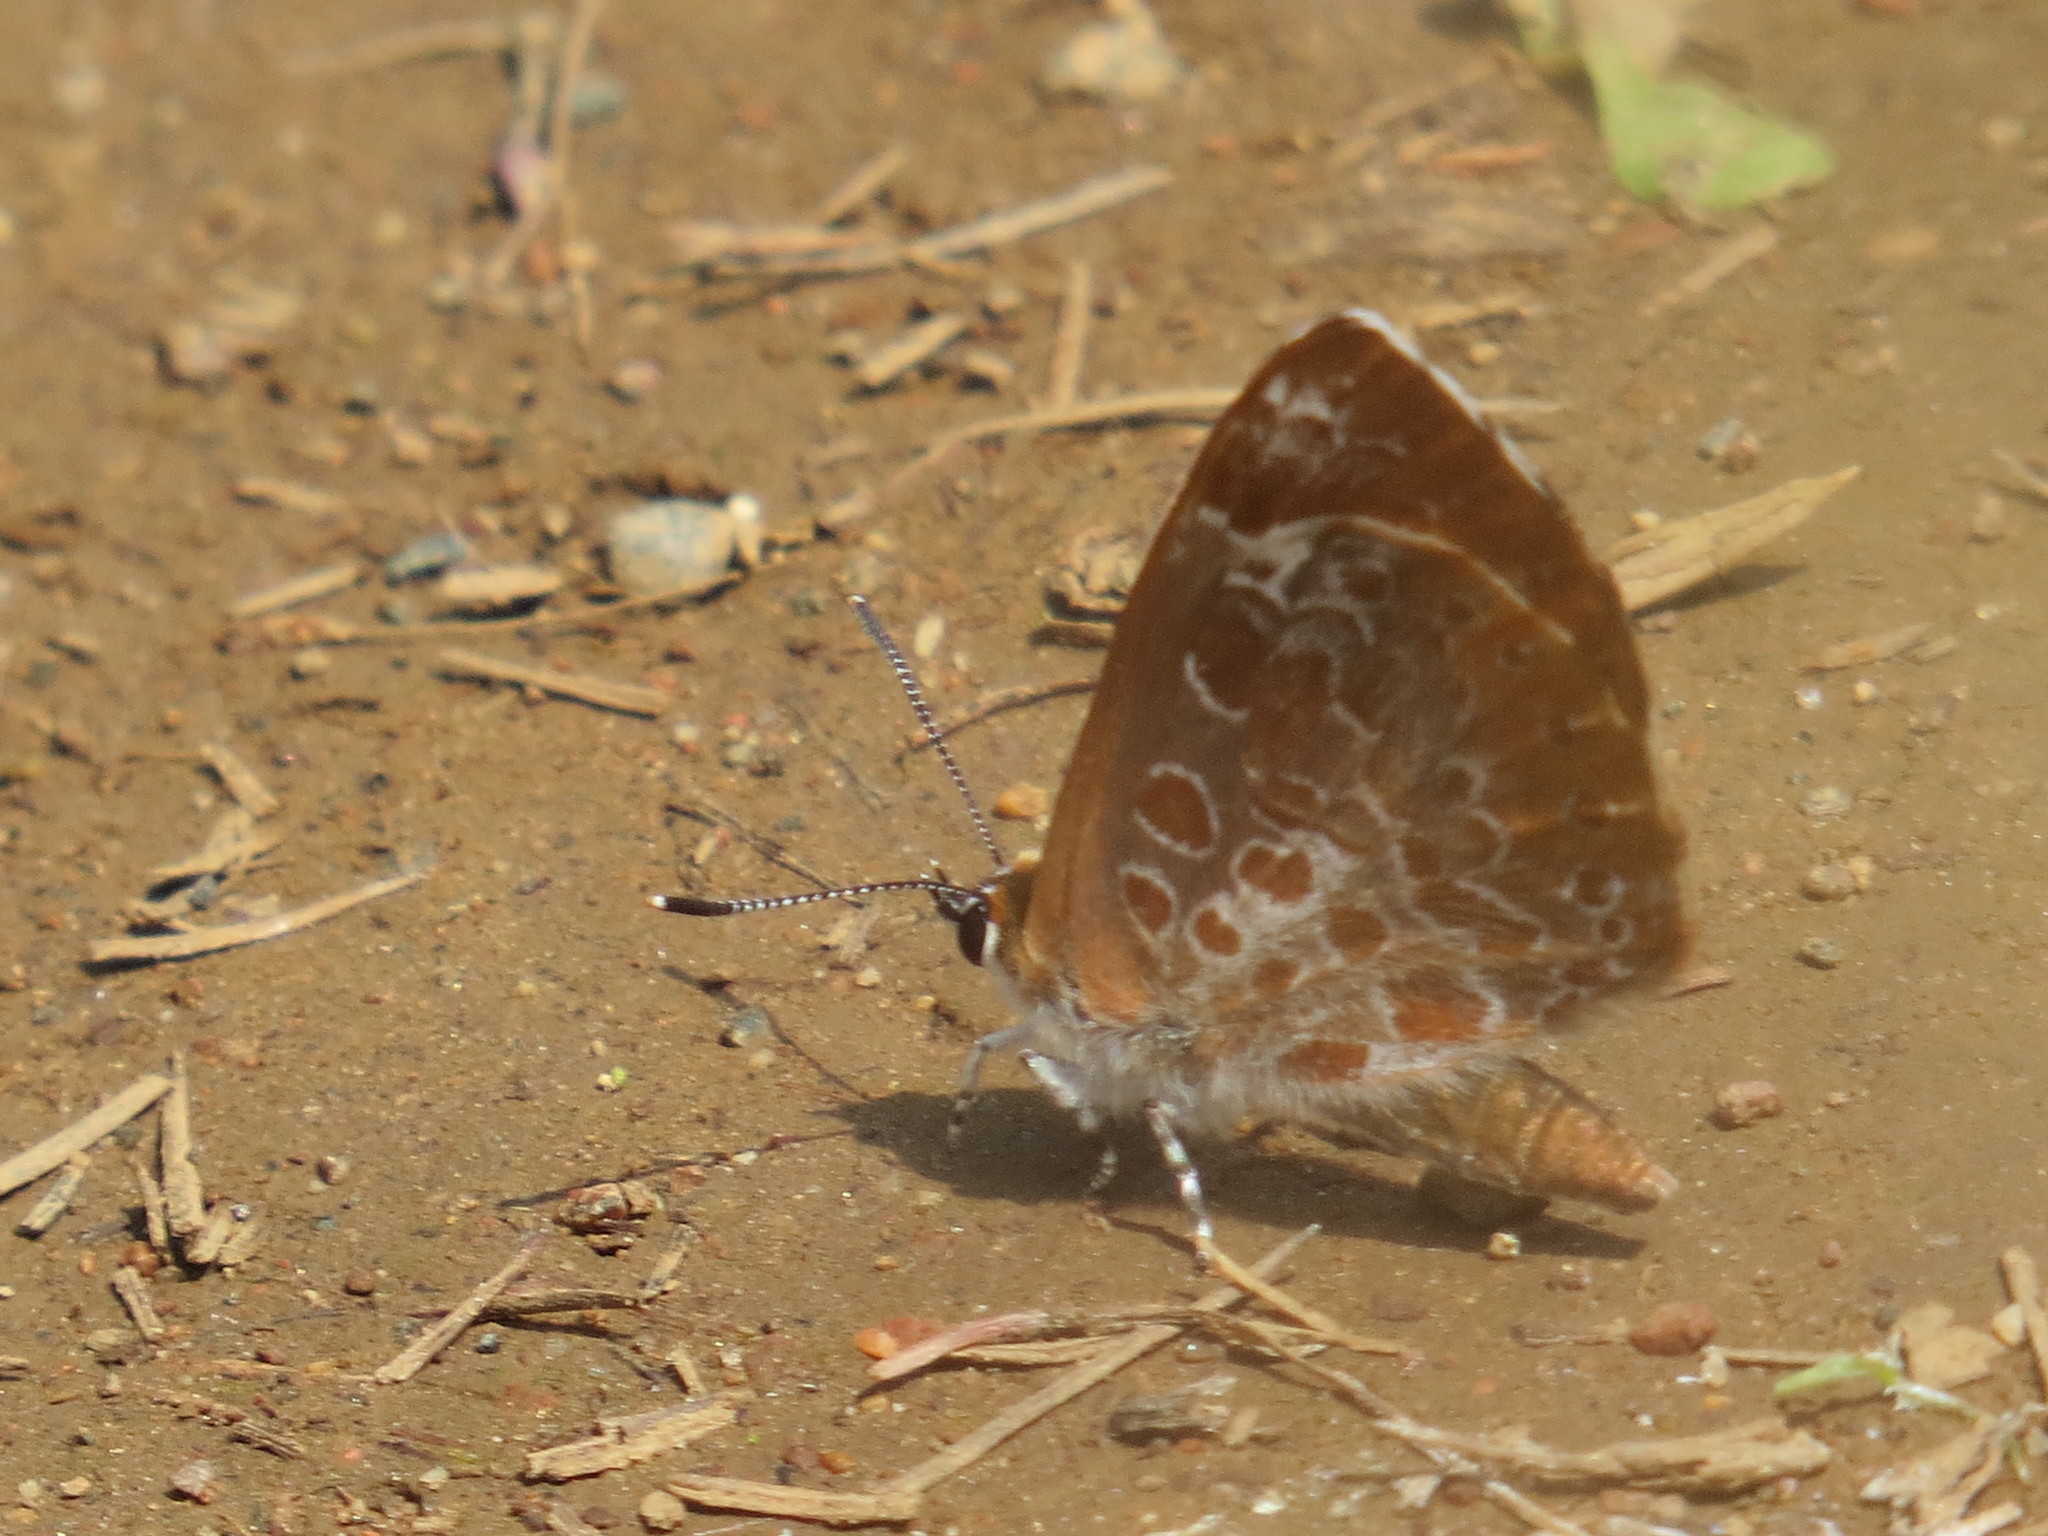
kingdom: Animalia
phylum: Arthropoda
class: Insecta
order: Lepidoptera
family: Lycaenidae
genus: Feniseca
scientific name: Feniseca tarquinius
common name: Harvester
